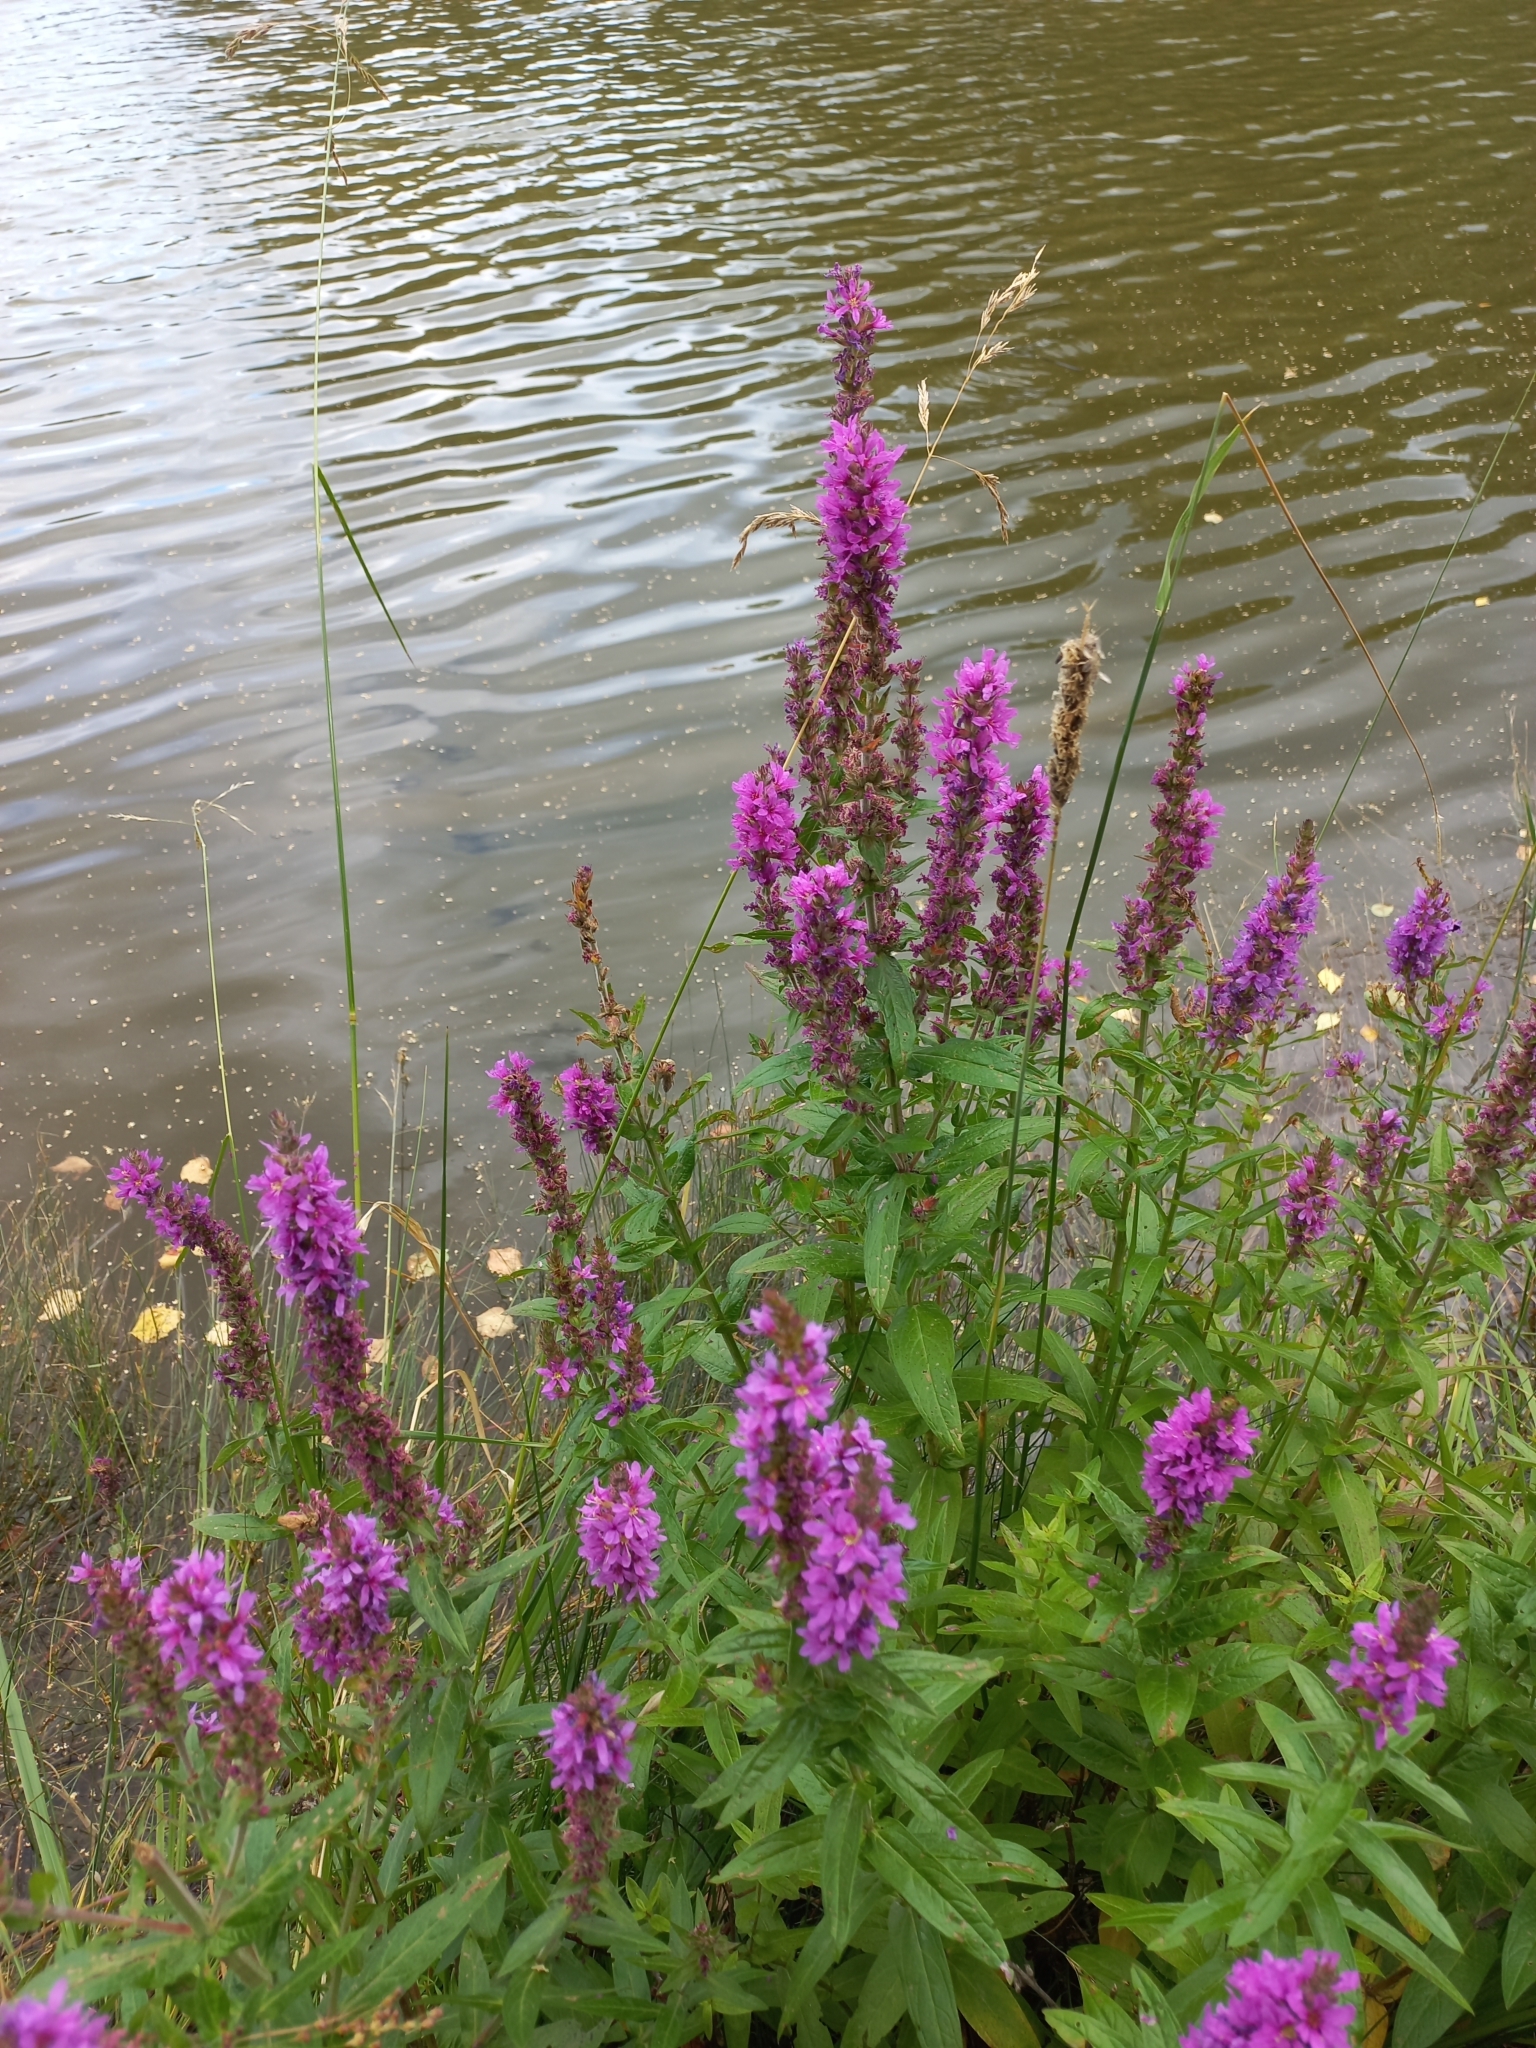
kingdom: Plantae
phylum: Tracheophyta
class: Magnoliopsida
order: Myrtales
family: Lythraceae
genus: Lythrum
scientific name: Lythrum salicaria
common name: Purple loosestrife
